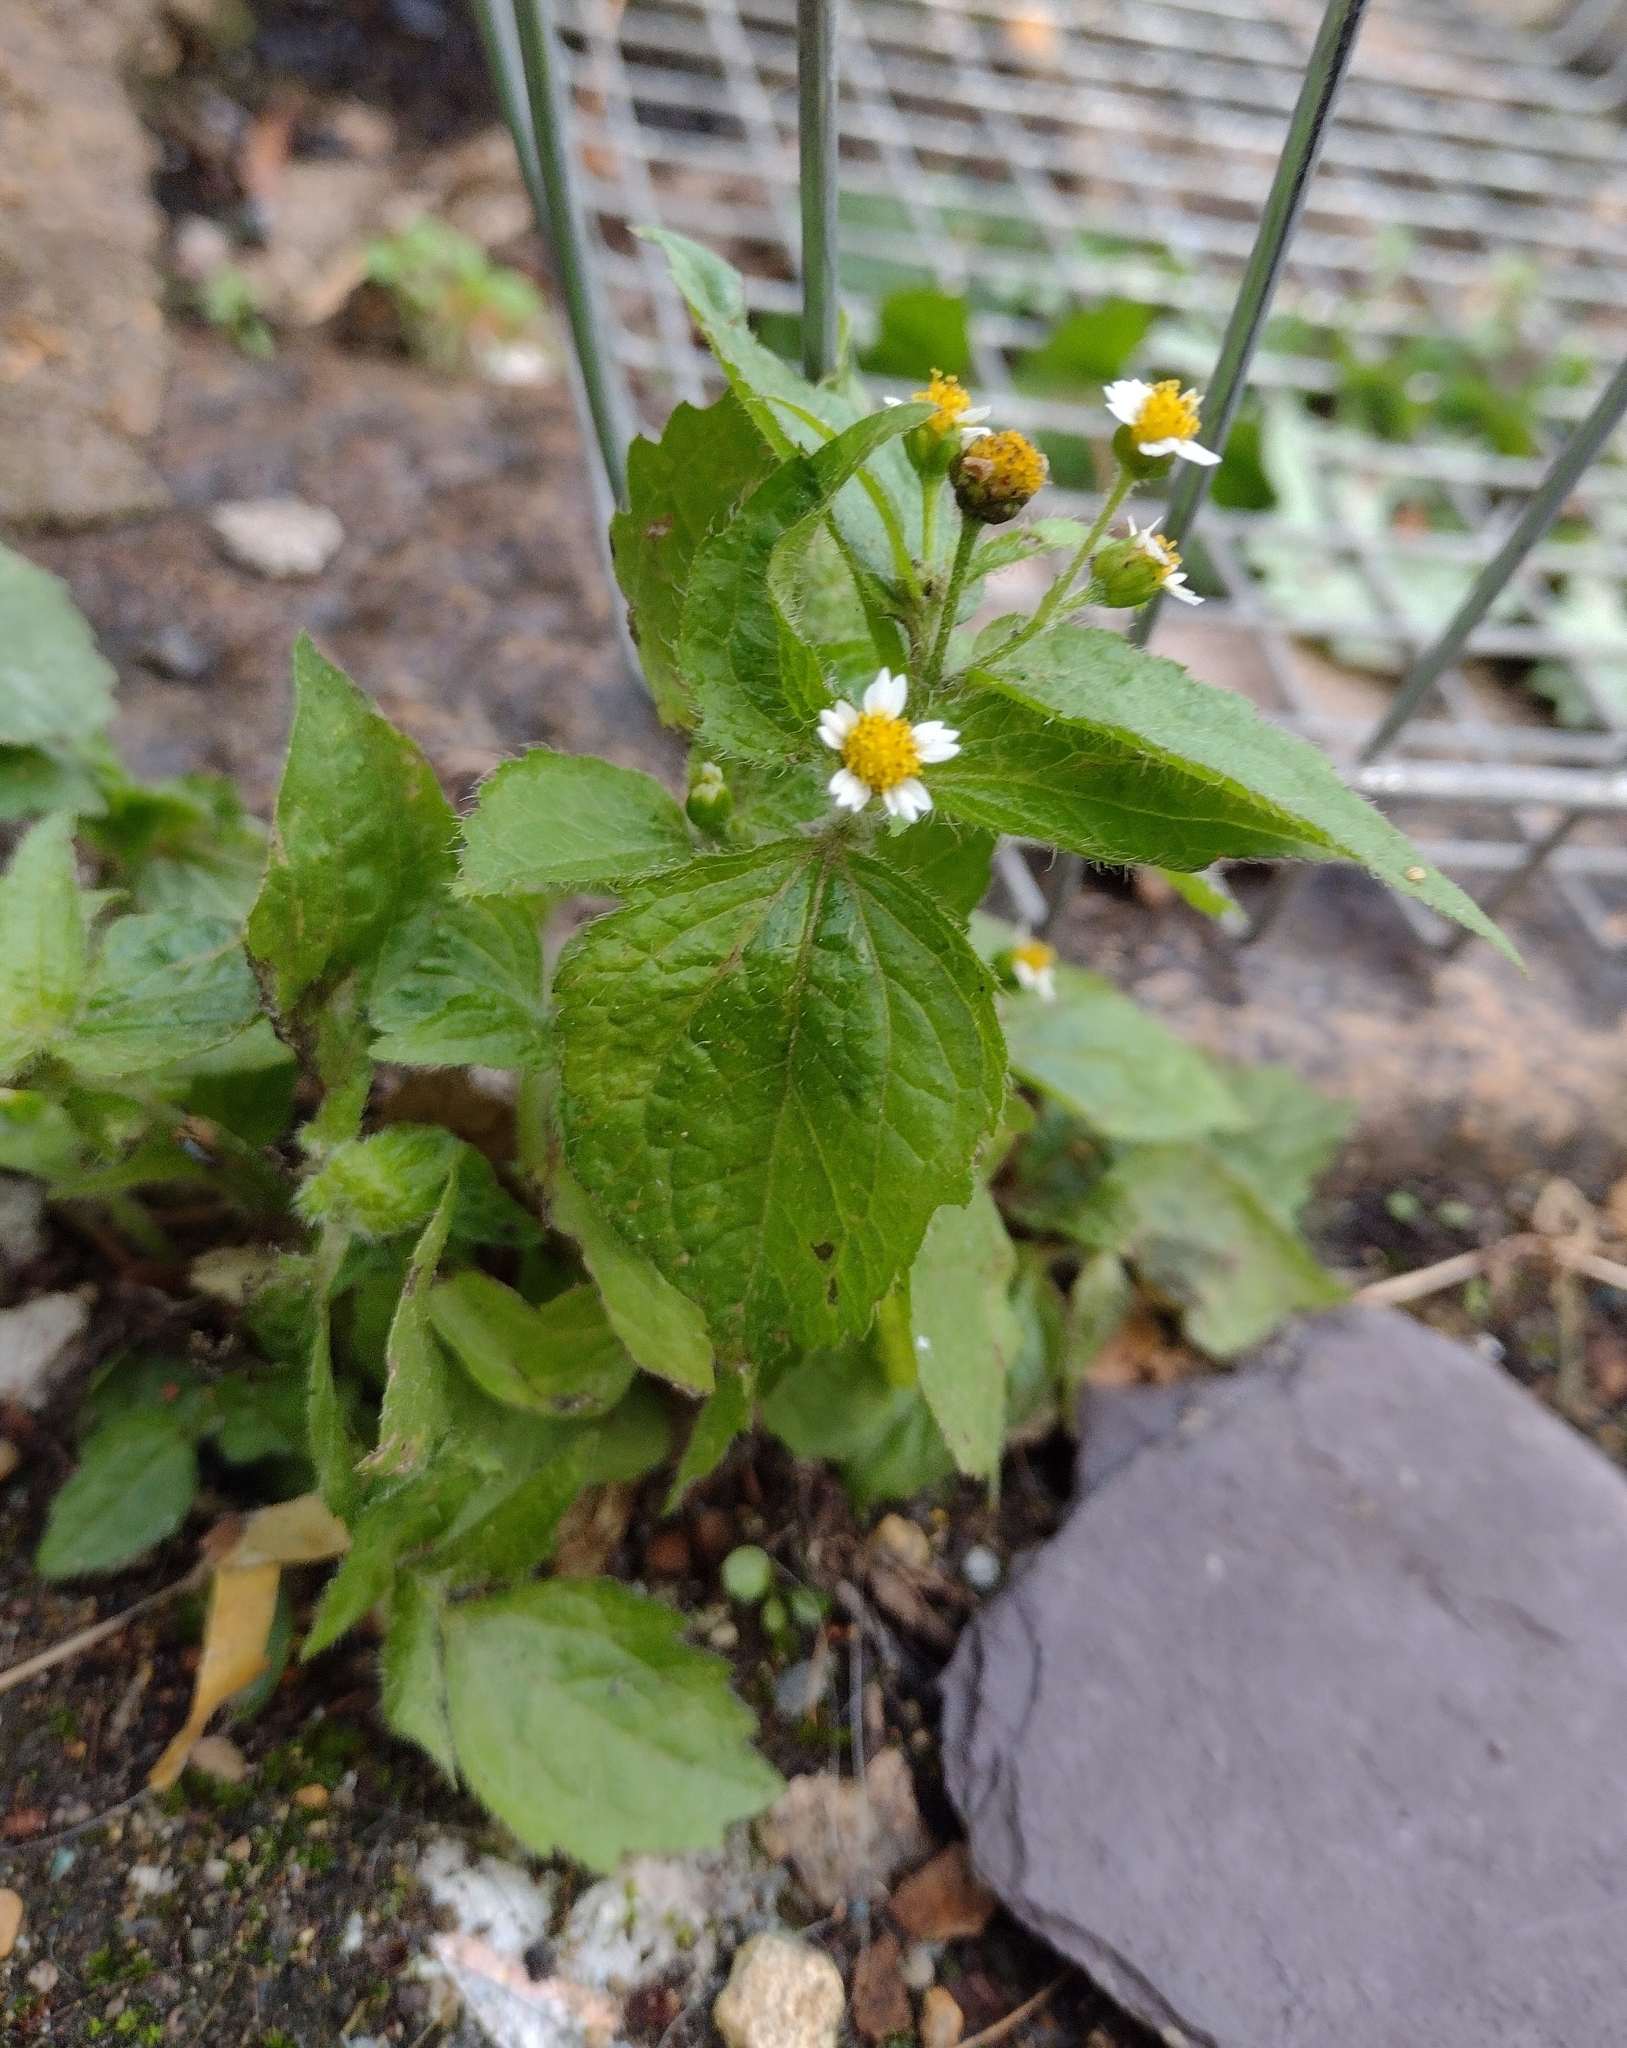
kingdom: Plantae
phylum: Tracheophyta
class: Magnoliopsida
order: Asterales
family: Asteraceae
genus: Galinsoga
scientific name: Galinsoga quadriradiata
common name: Shaggy soldier
